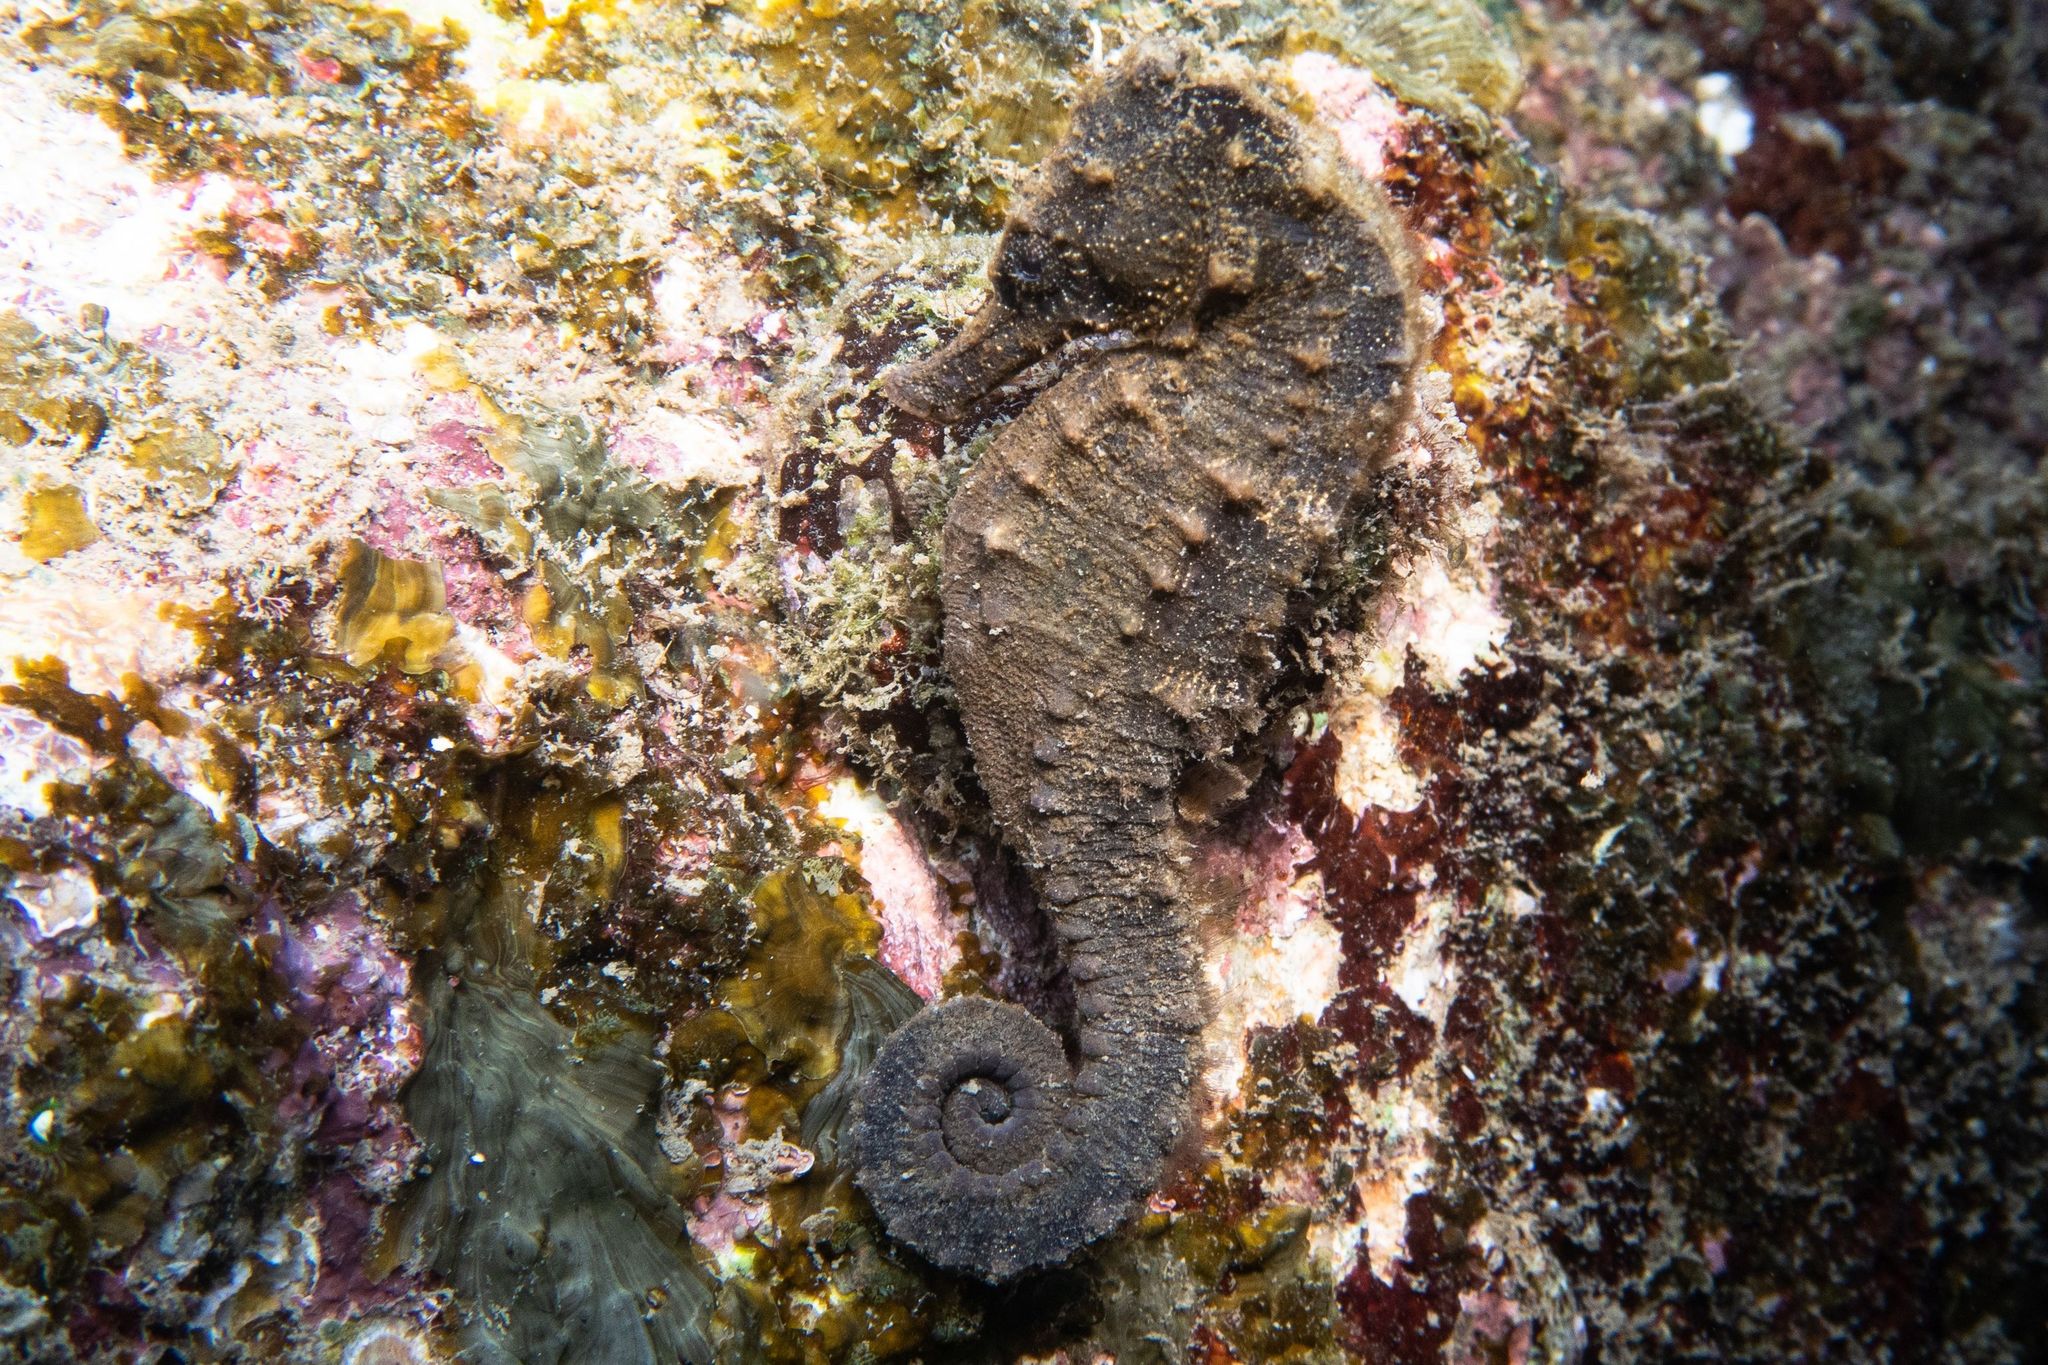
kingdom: Animalia
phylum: Chordata
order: Syngnathiformes
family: Syngnathidae
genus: Hippocampus
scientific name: Hippocampus kuda
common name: Spotted seahorse
